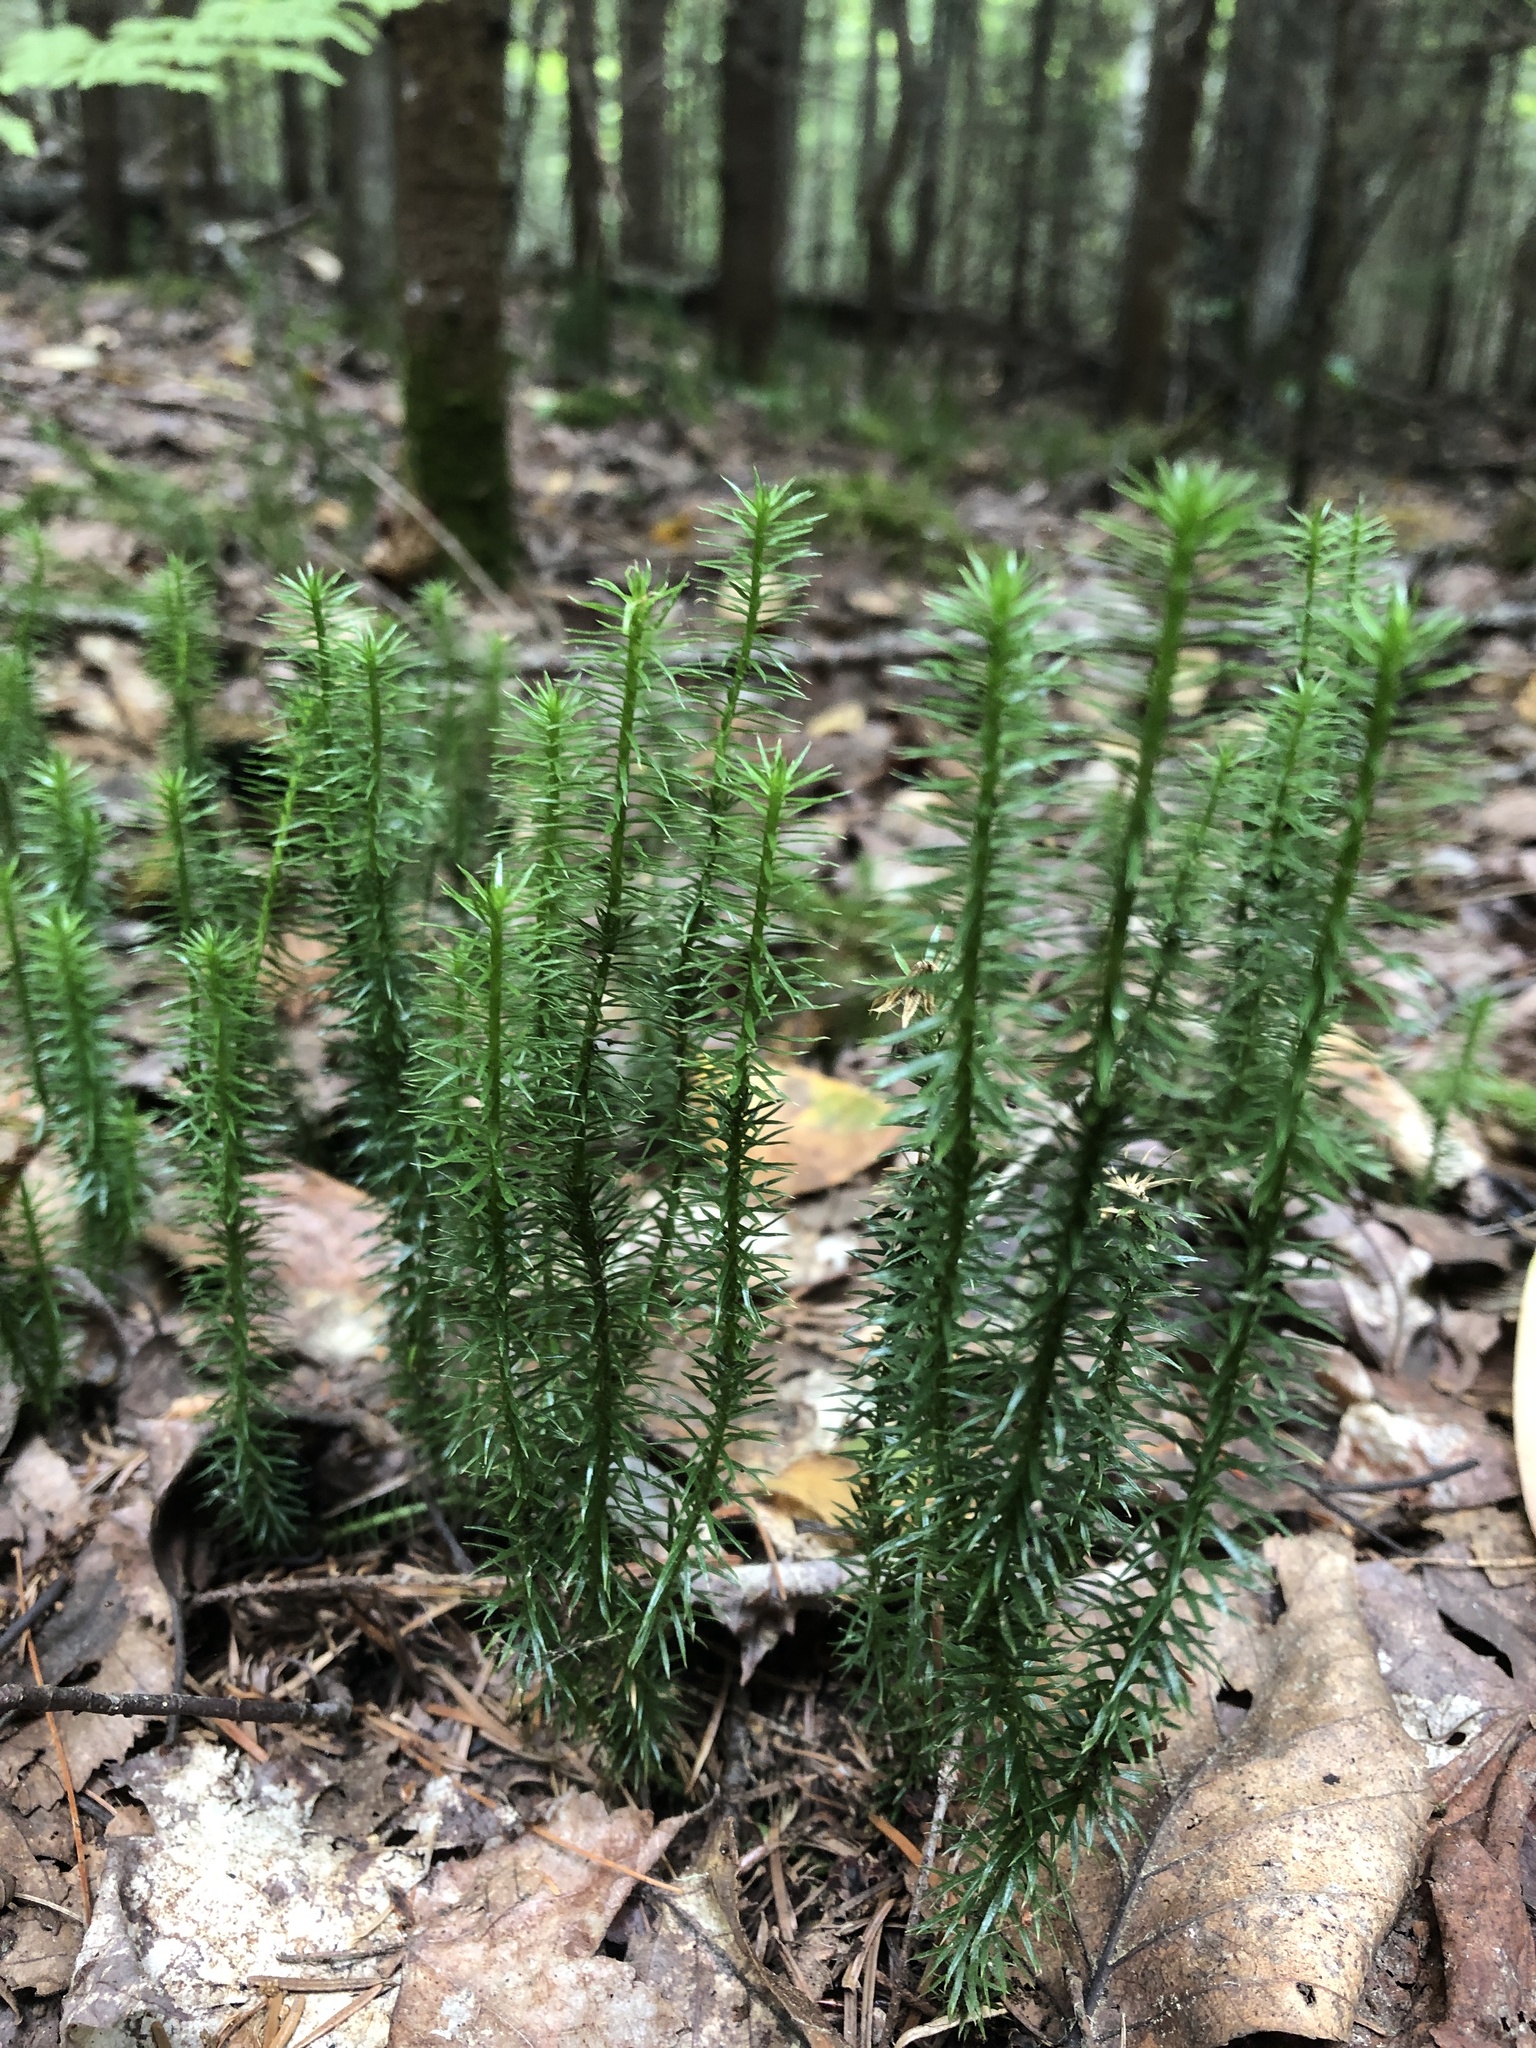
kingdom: Plantae
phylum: Tracheophyta
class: Lycopodiopsida
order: Lycopodiales
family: Lycopodiaceae
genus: Spinulum
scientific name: Spinulum annotinum
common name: Interrupted club-moss
